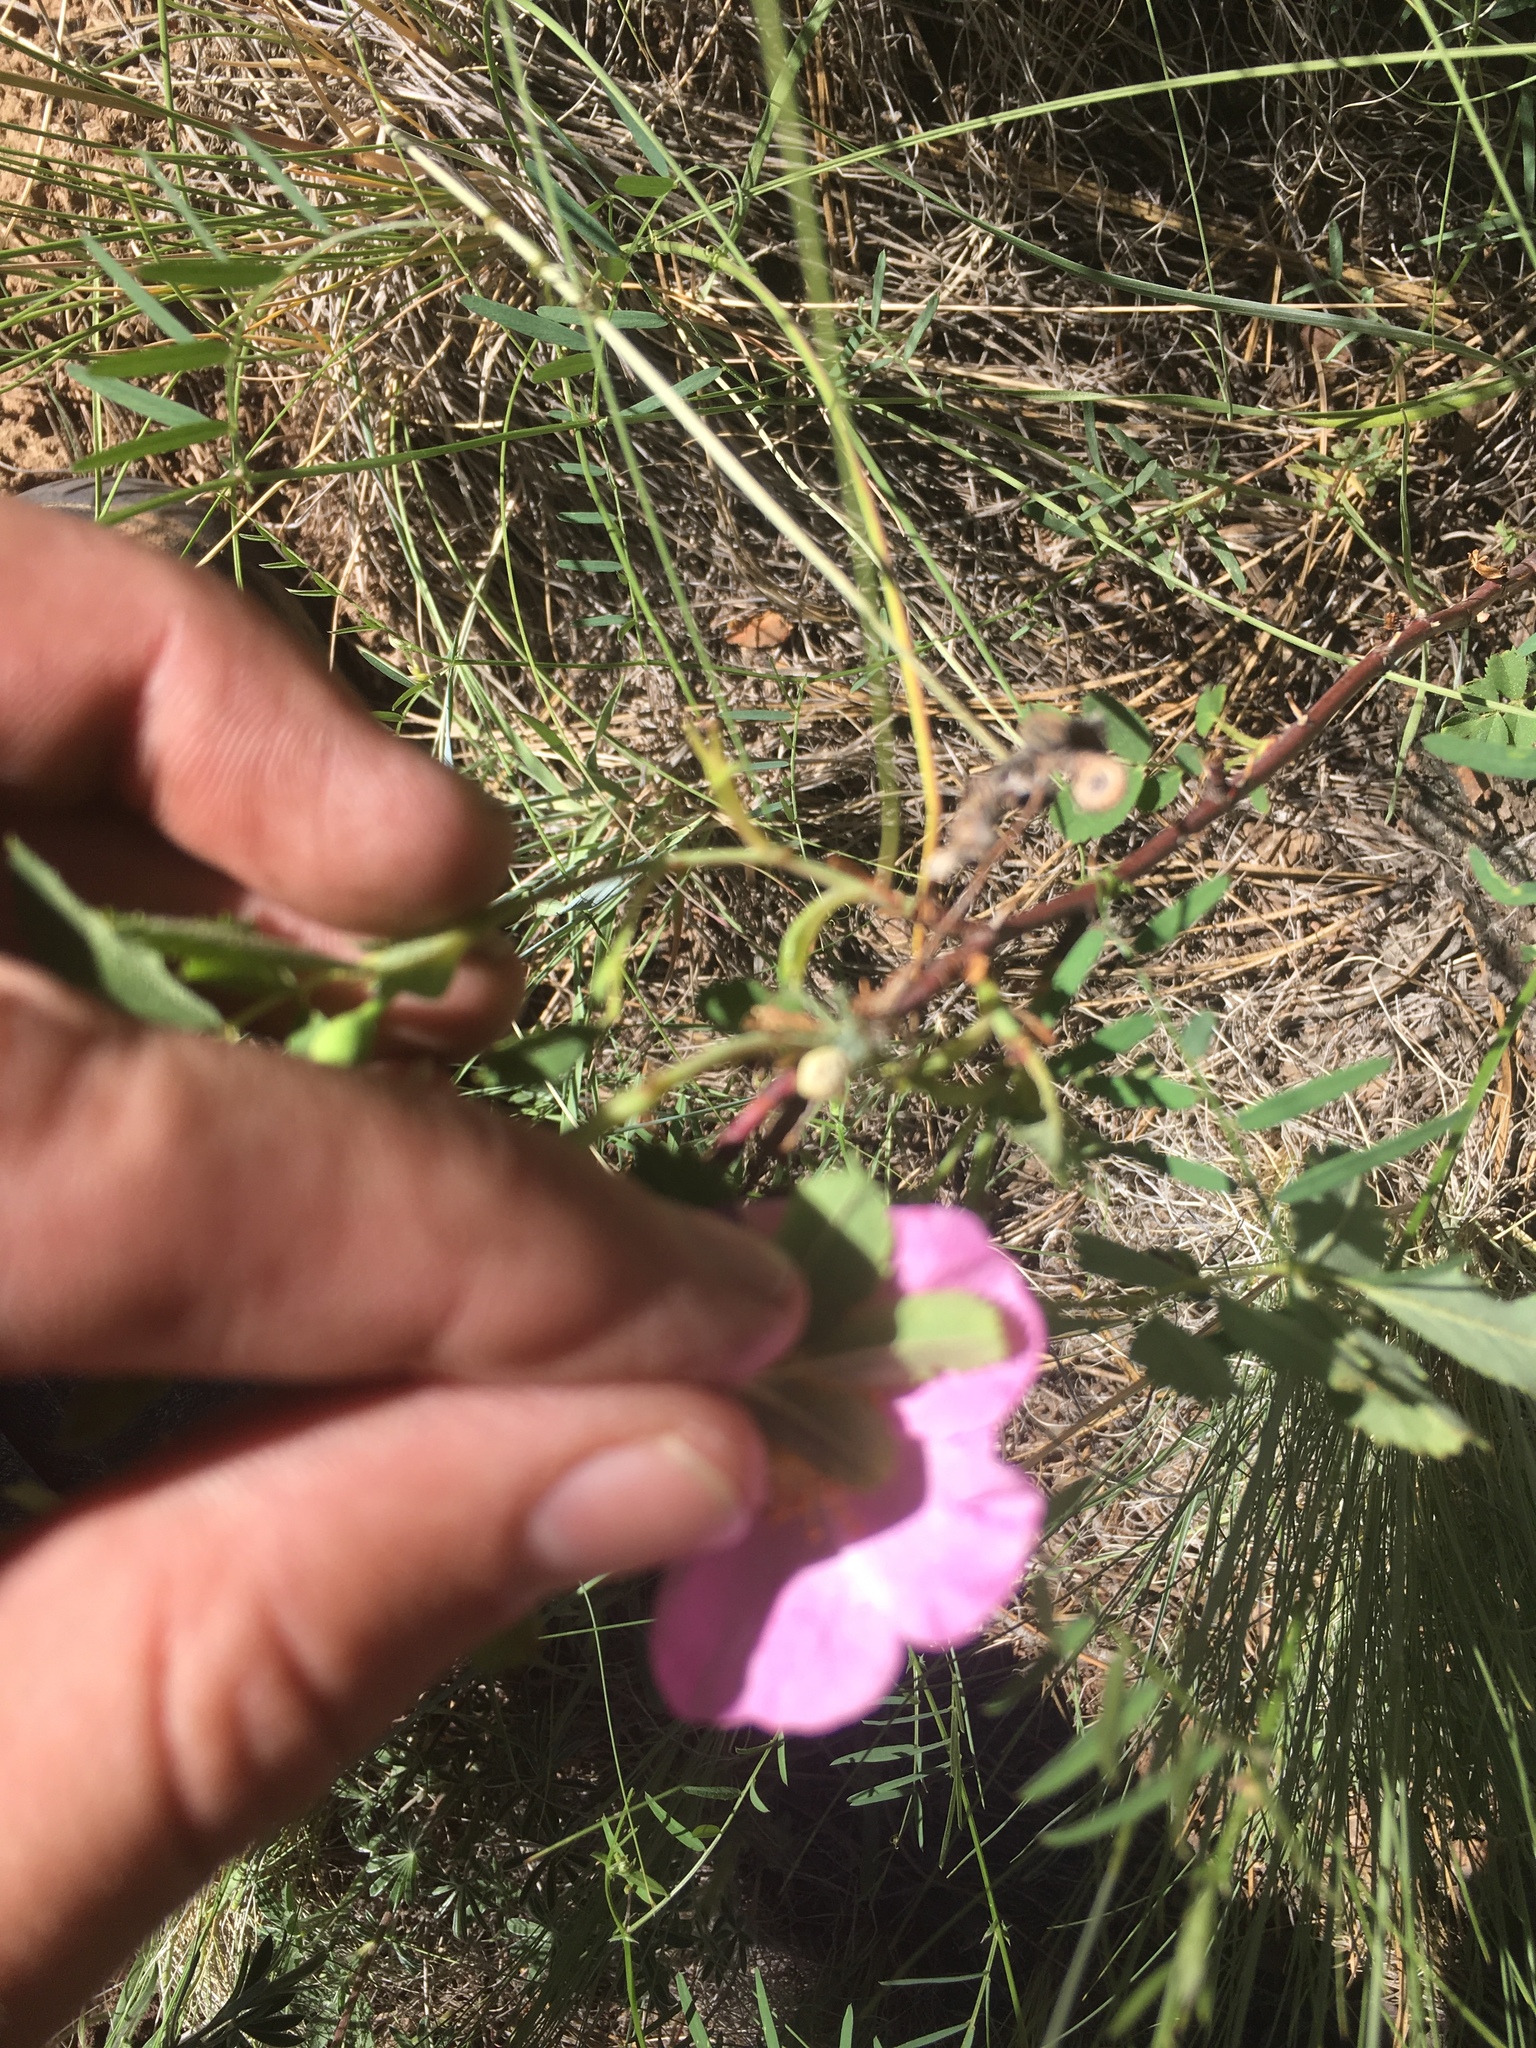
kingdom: Plantae
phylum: Tracheophyta
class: Magnoliopsida
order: Rosales
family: Rosaceae
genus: Rosa
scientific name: Rosa woodsii
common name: Woods's rose
